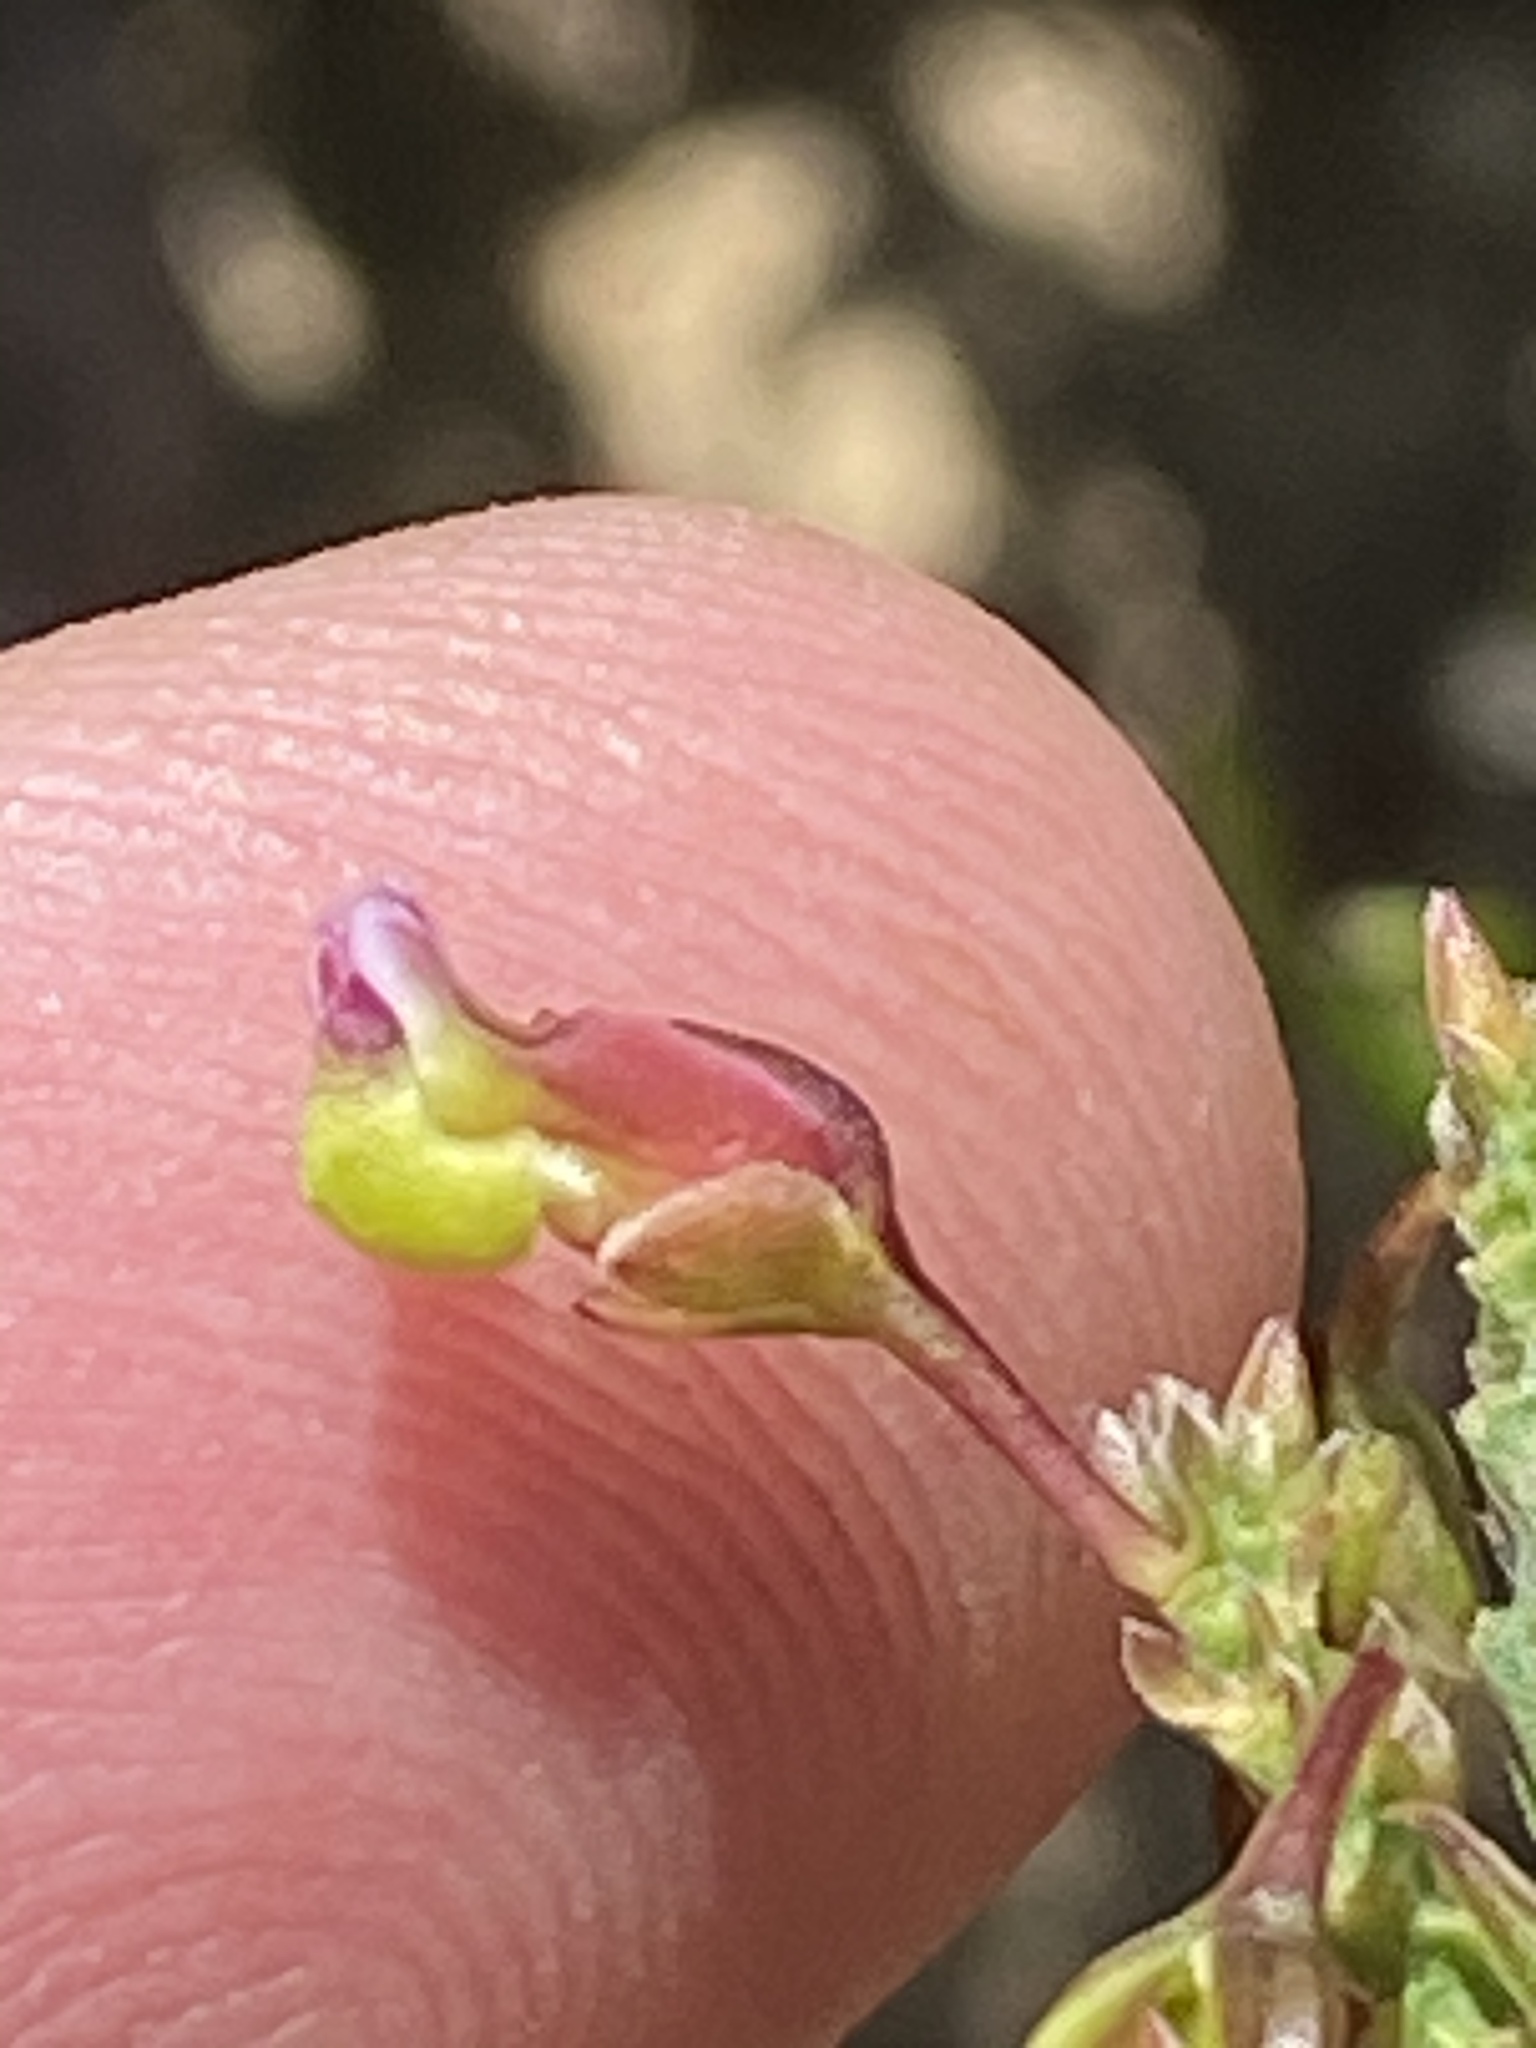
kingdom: Plantae
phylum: Tracheophyta
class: Magnoliopsida
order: Fabales
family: Polygalaceae
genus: Polygala
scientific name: Polygala triquetra
